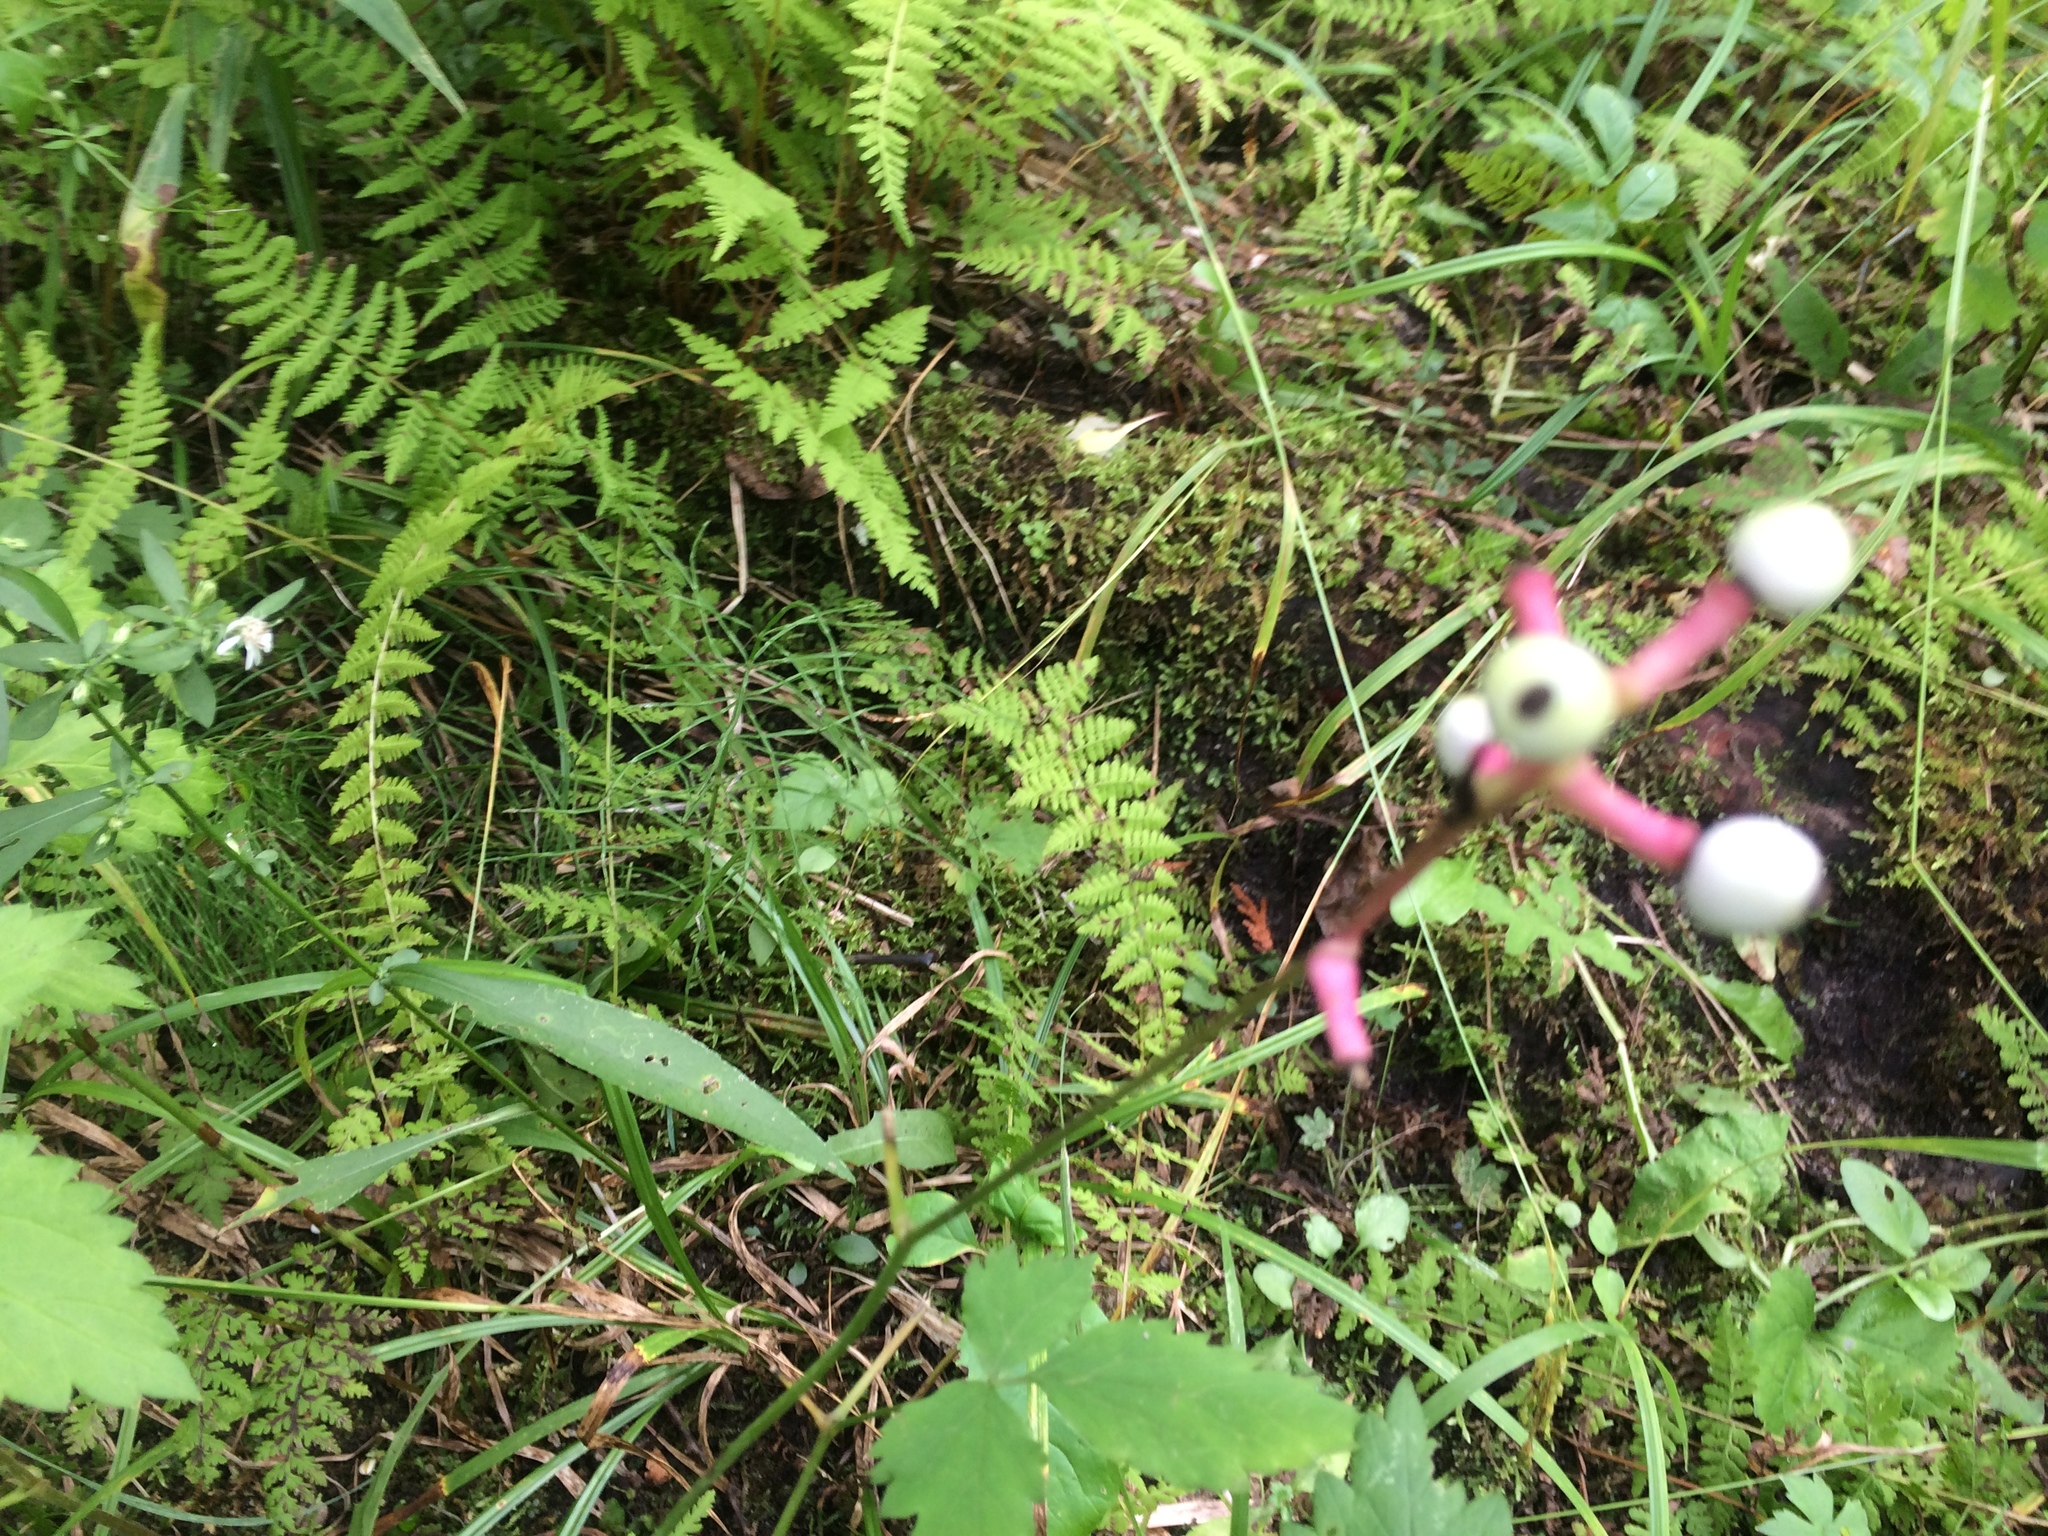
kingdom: Plantae
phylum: Tracheophyta
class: Magnoliopsida
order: Ranunculales
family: Ranunculaceae
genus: Actaea
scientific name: Actaea pachypoda
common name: Doll's-eyes
